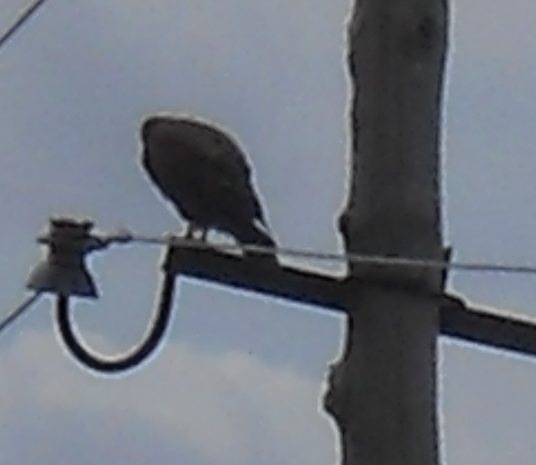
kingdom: Animalia
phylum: Chordata
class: Aves
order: Accipitriformes
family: Accipitridae
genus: Buteo
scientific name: Buteo rufinus
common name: Long-legged buzzard
